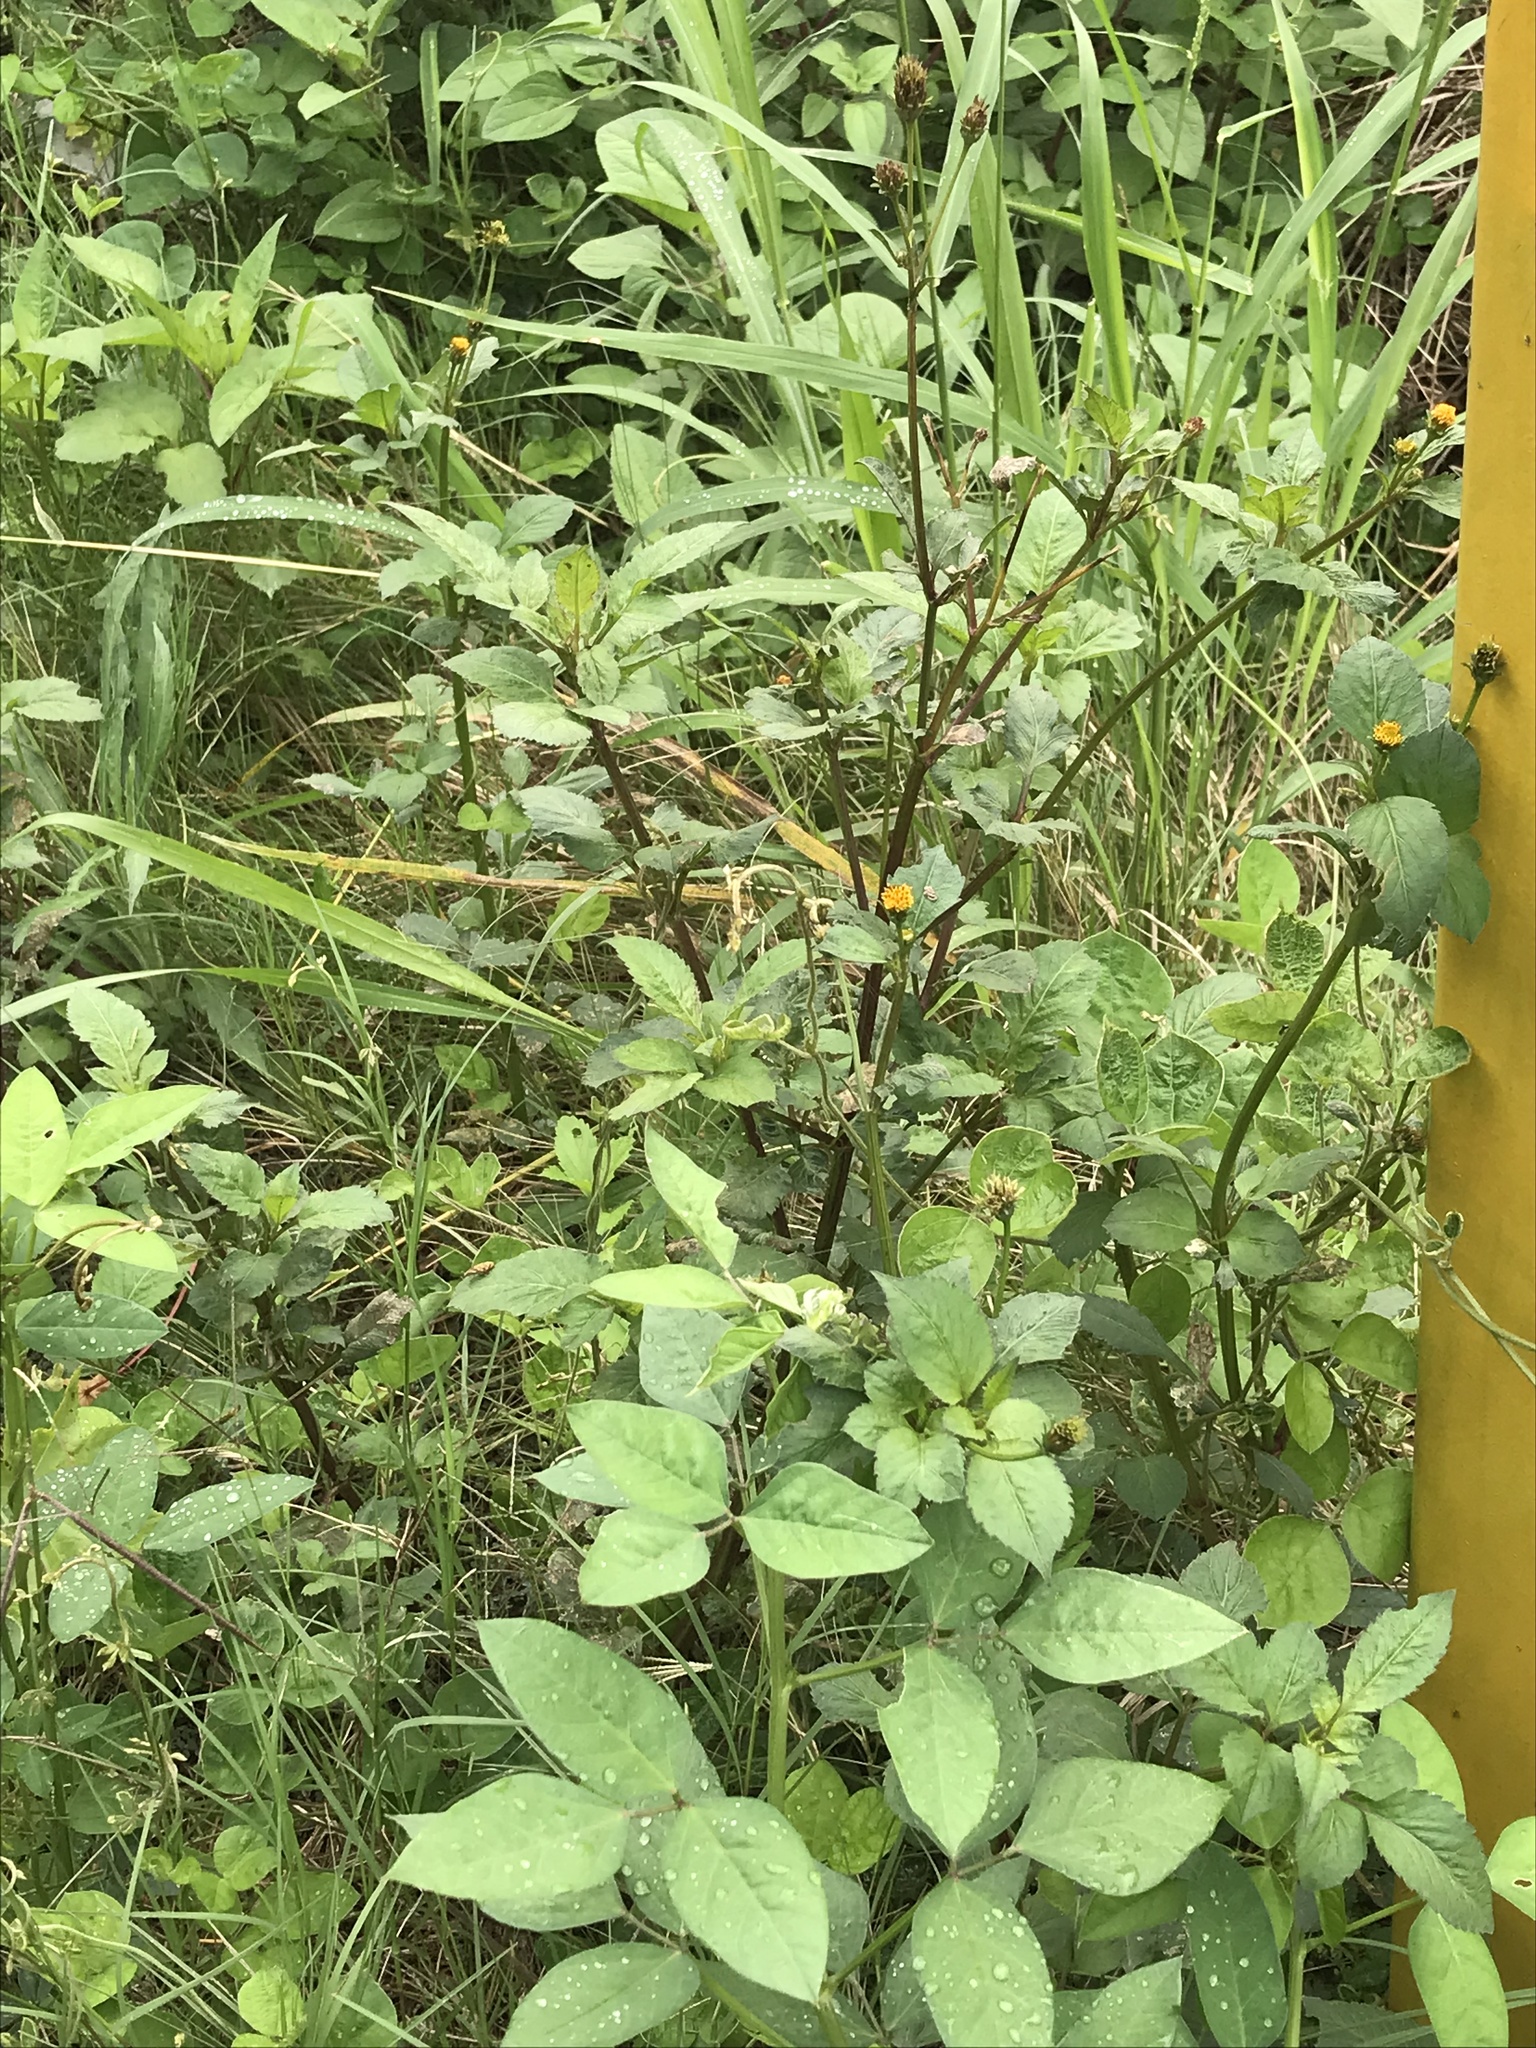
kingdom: Plantae
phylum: Tracheophyta
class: Magnoliopsida
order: Asterales
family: Asteraceae
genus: Bidens
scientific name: Bidens pilosa
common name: Black-jack
